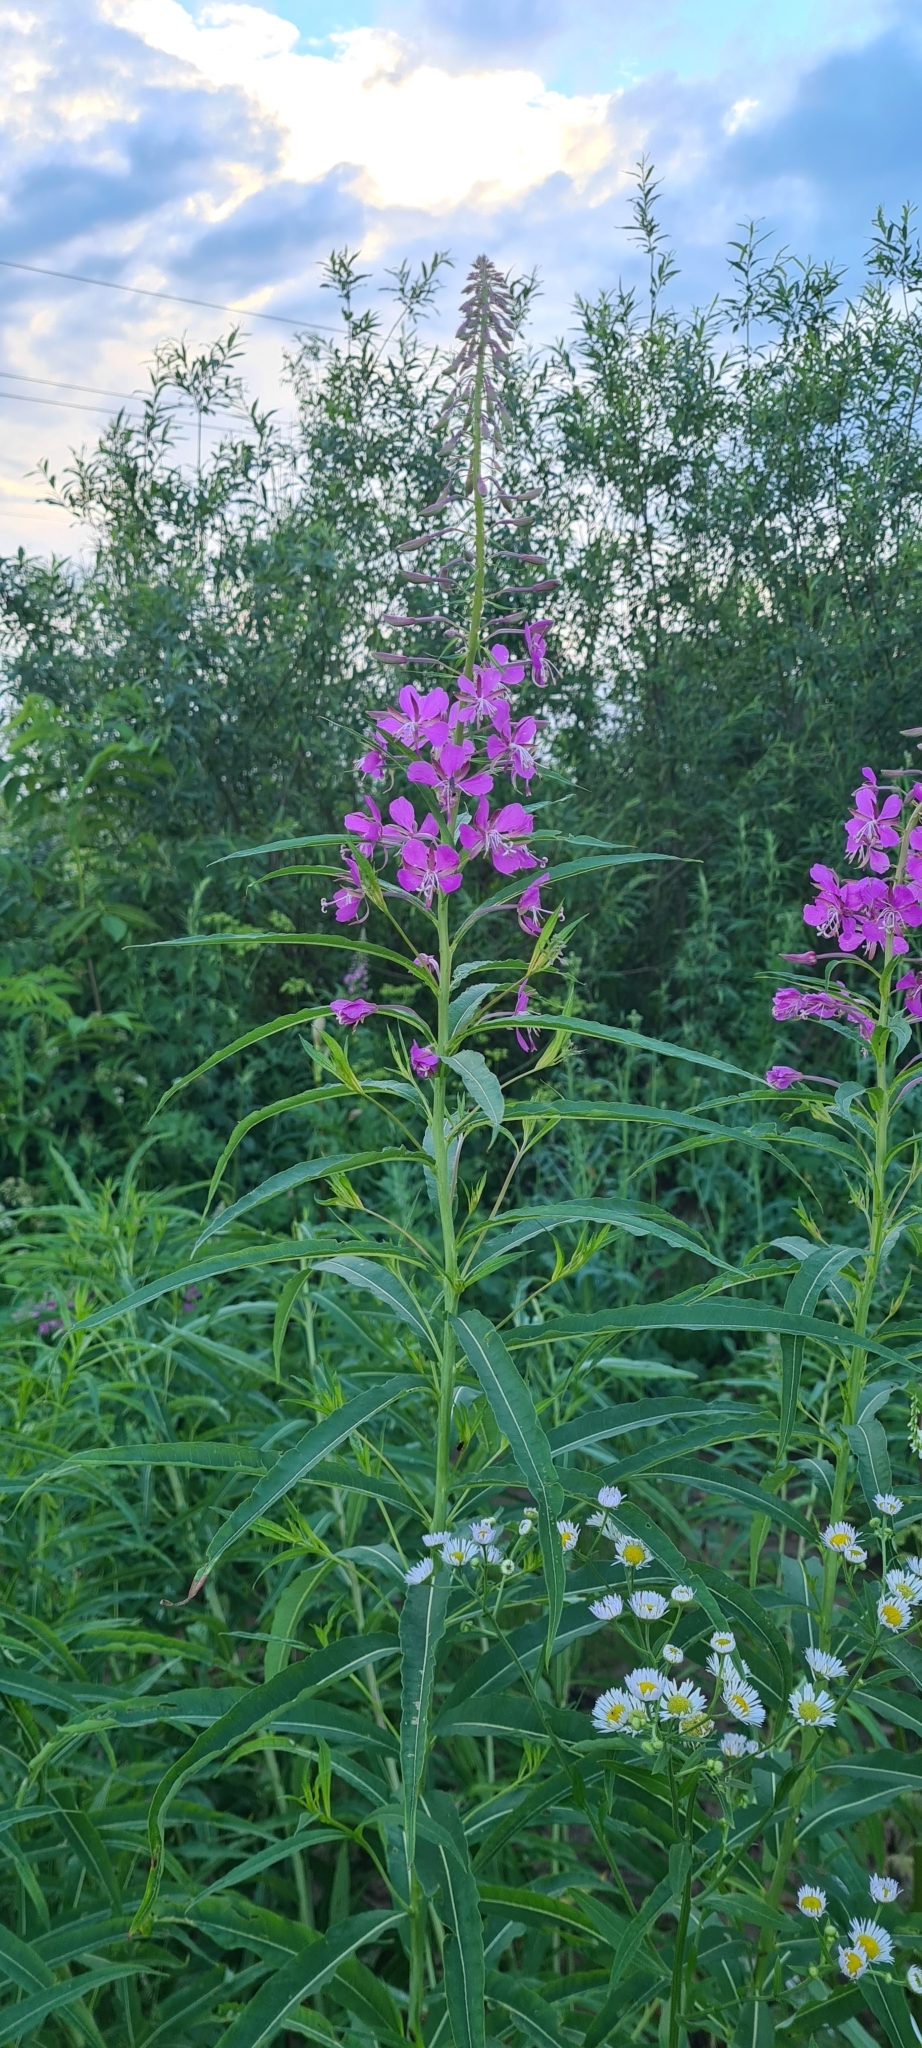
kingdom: Plantae
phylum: Tracheophyta
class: Magnoliopsida
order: Myrtales
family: Onagraceae
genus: Chamaenerion
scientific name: Chamaenerion angustifolium
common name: Fireweed
